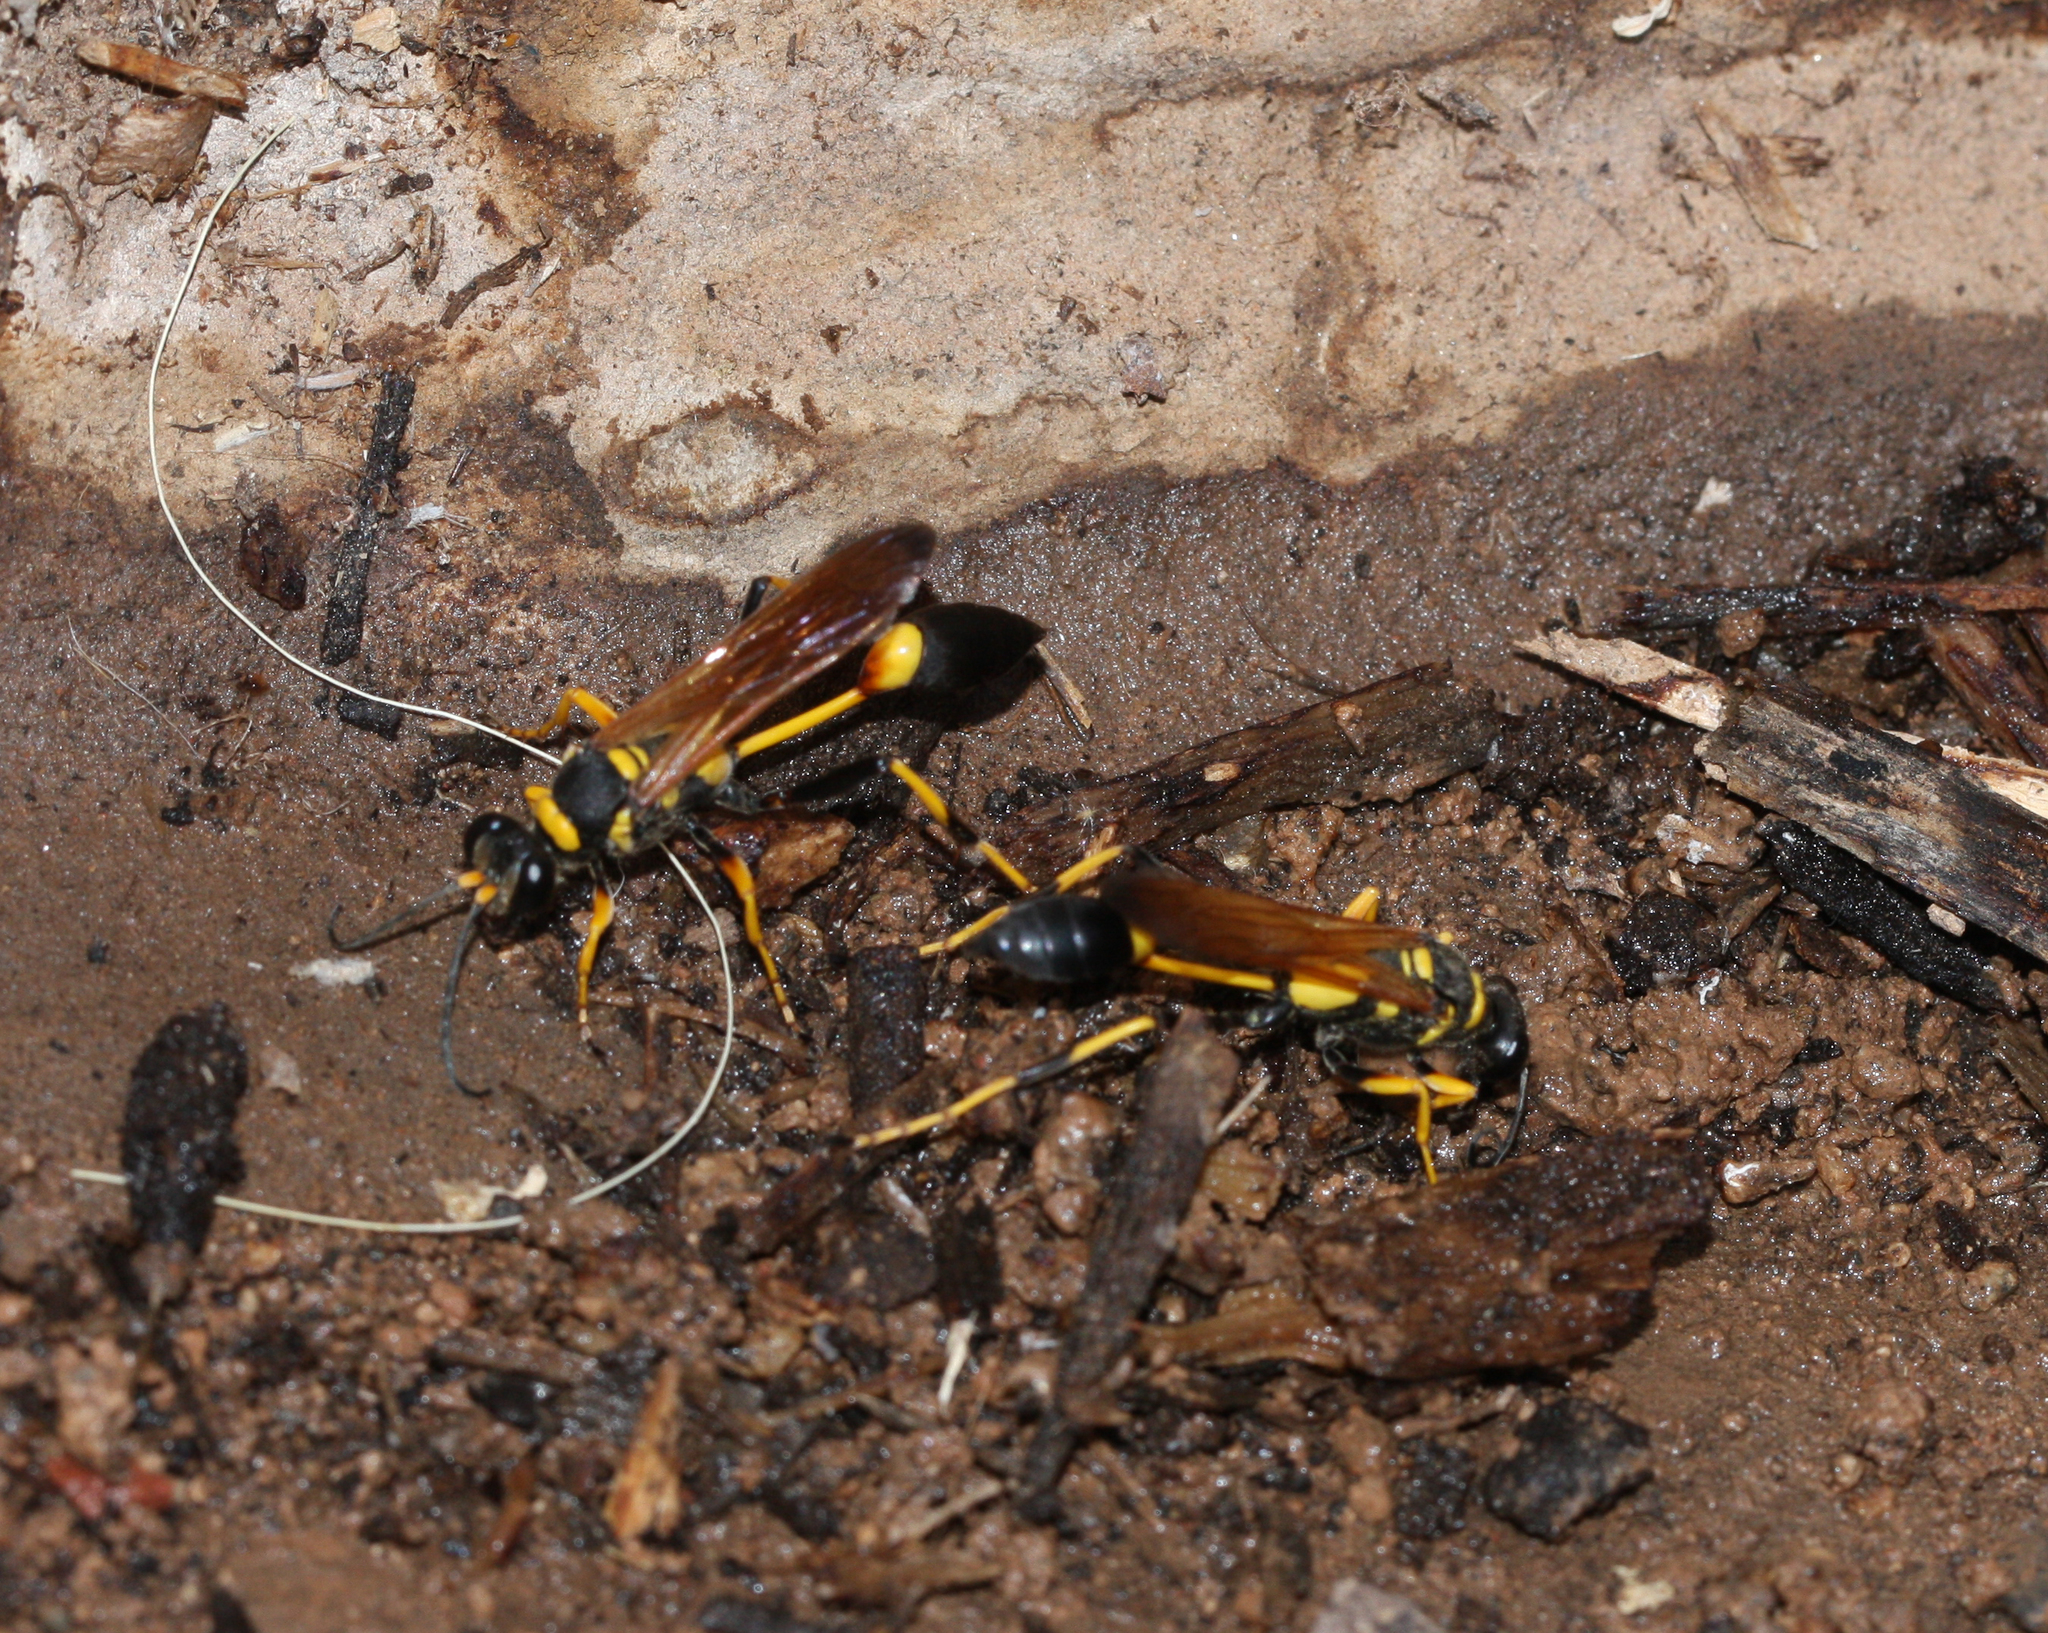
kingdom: Animalia
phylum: Arthropoda
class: Insecta
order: Hymenoptera
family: Sphecidae
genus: Sceliphron
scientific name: Sceliphron caementarium
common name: Mud dauber
